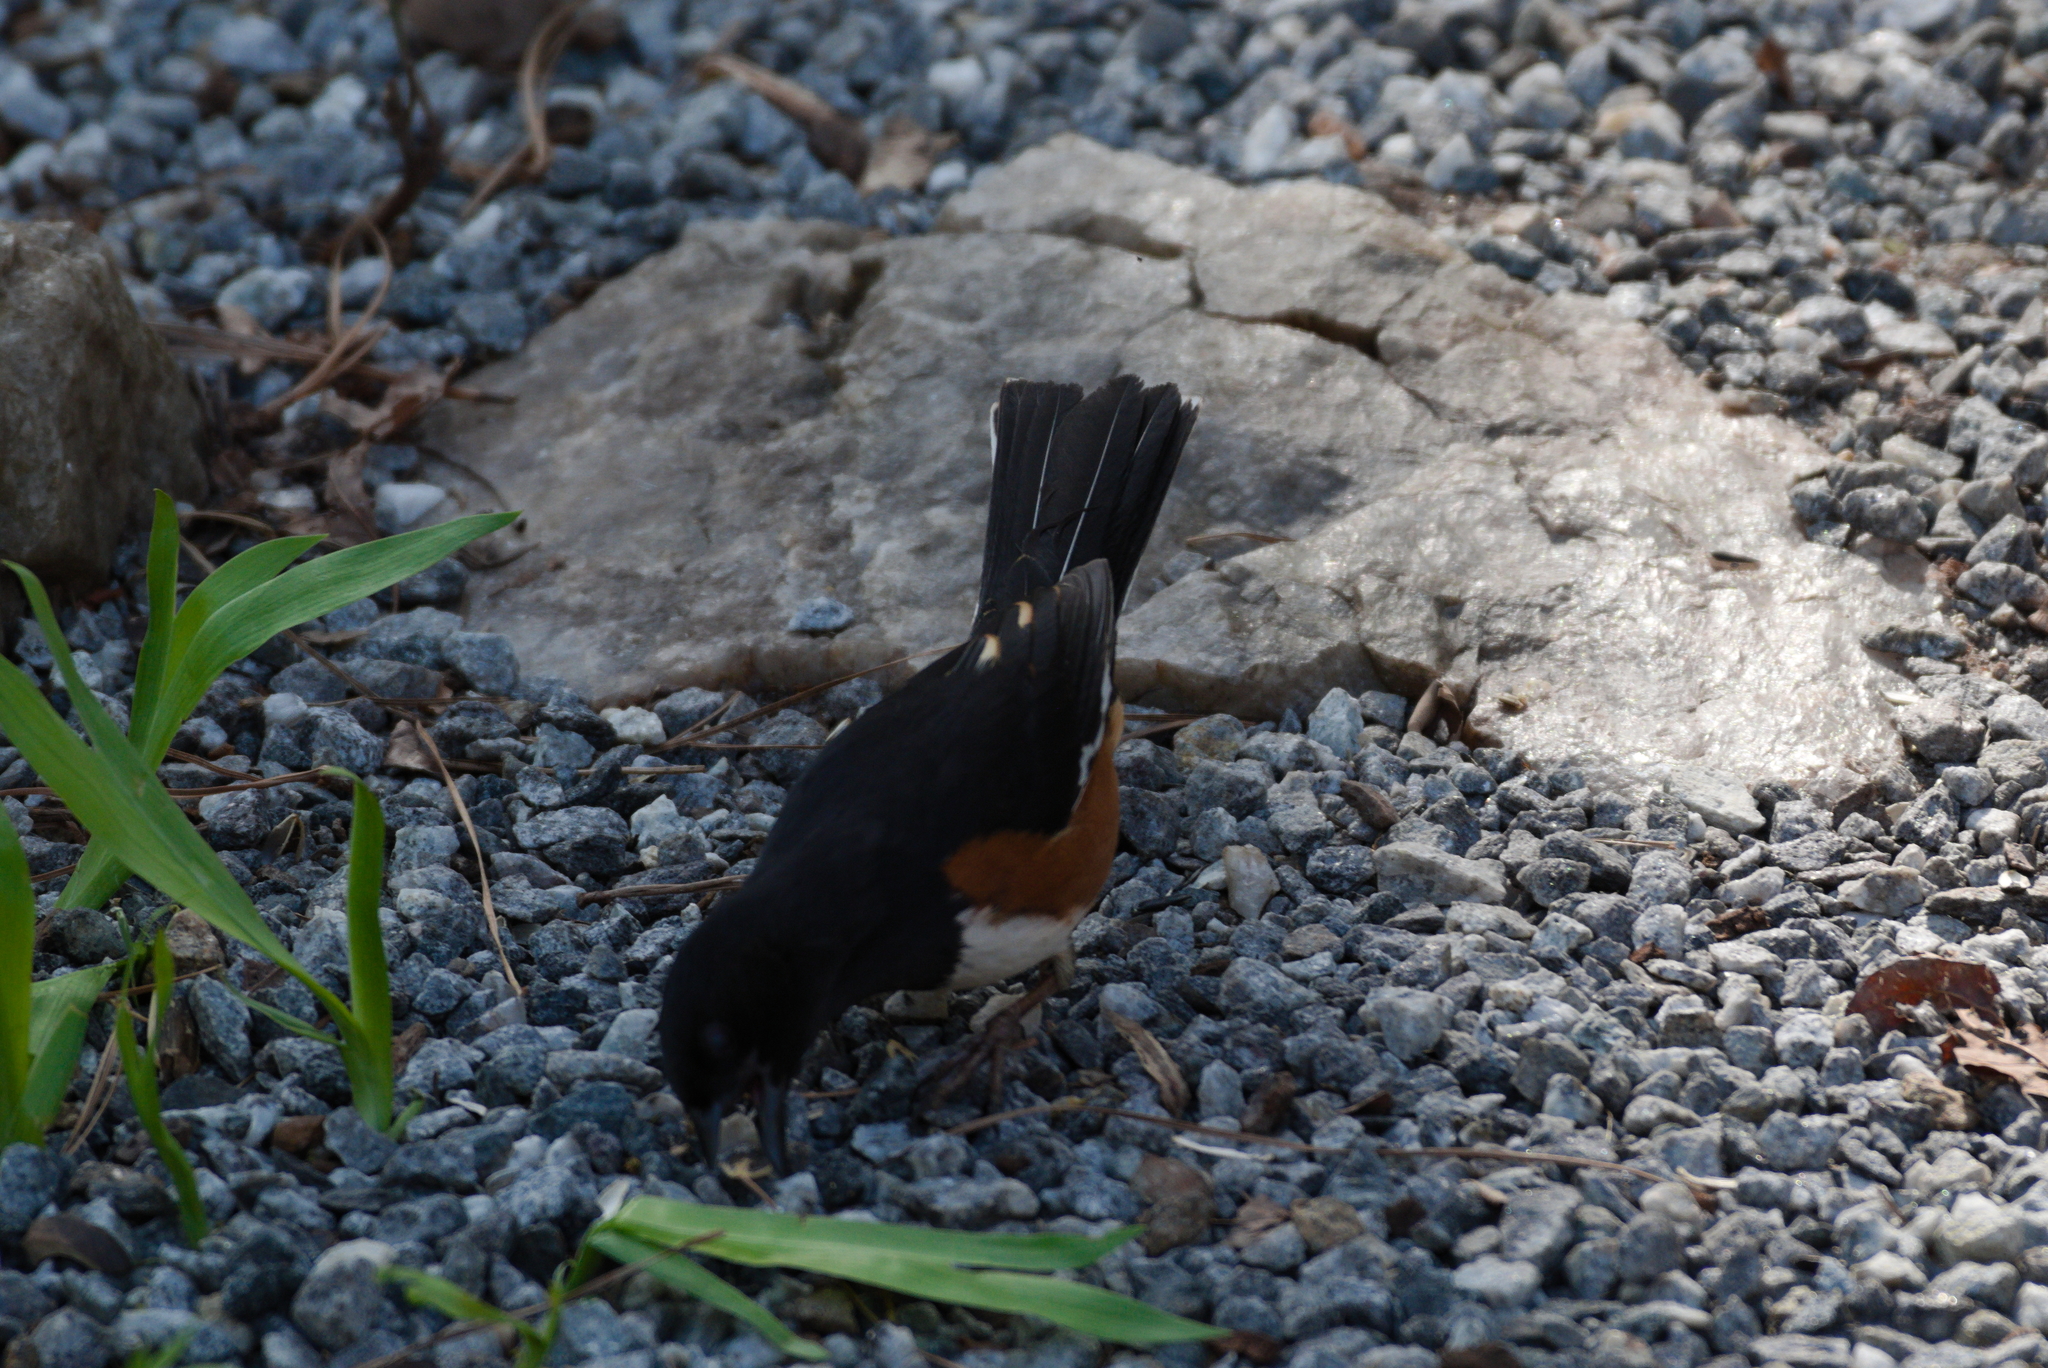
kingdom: Animalia
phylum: Chordata
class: Aves
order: Passeriformes
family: Passerellidae
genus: Pipilo
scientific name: Pipilo erythrophthalmus
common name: Eastern towhee
